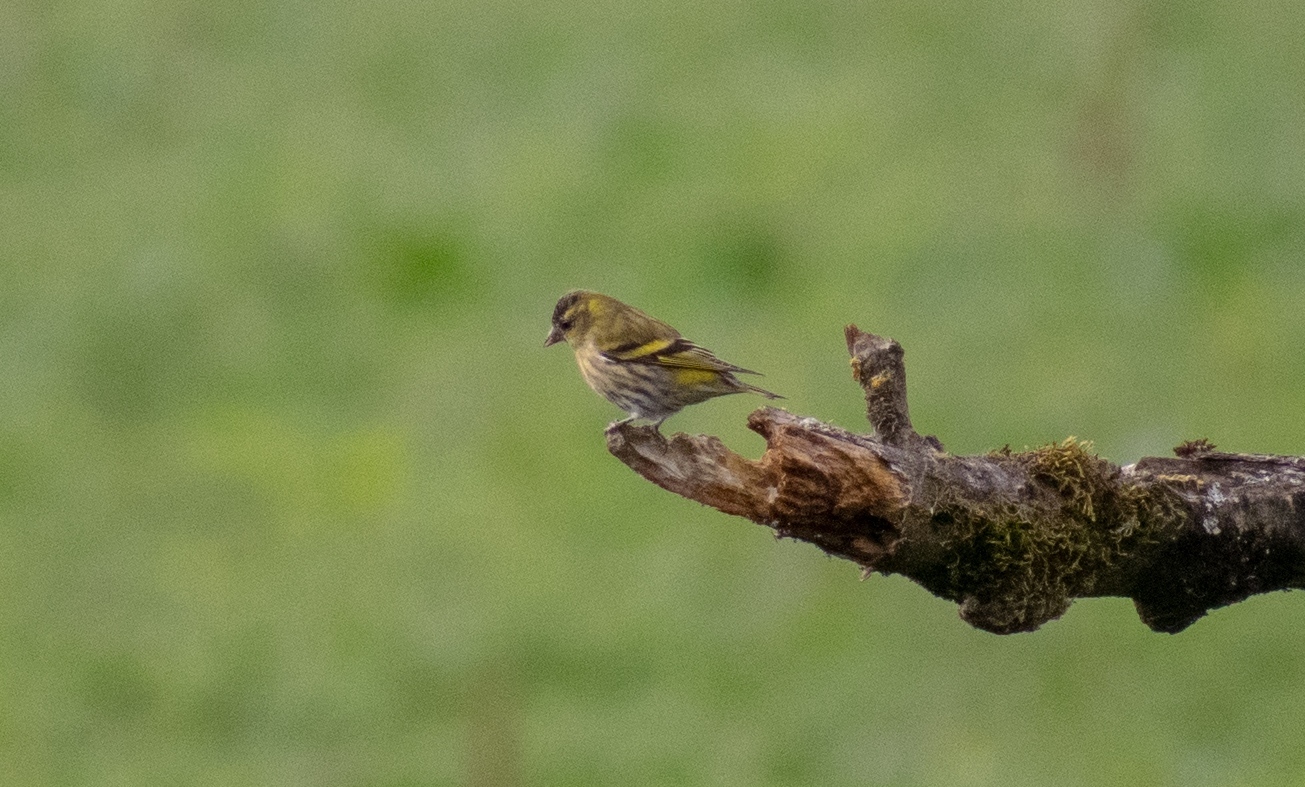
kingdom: Animalia
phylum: Chordata
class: Aves
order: Passeriformes
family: Fringillidae
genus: Spinus
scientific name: Spinus spinus
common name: Eurasian siskin
